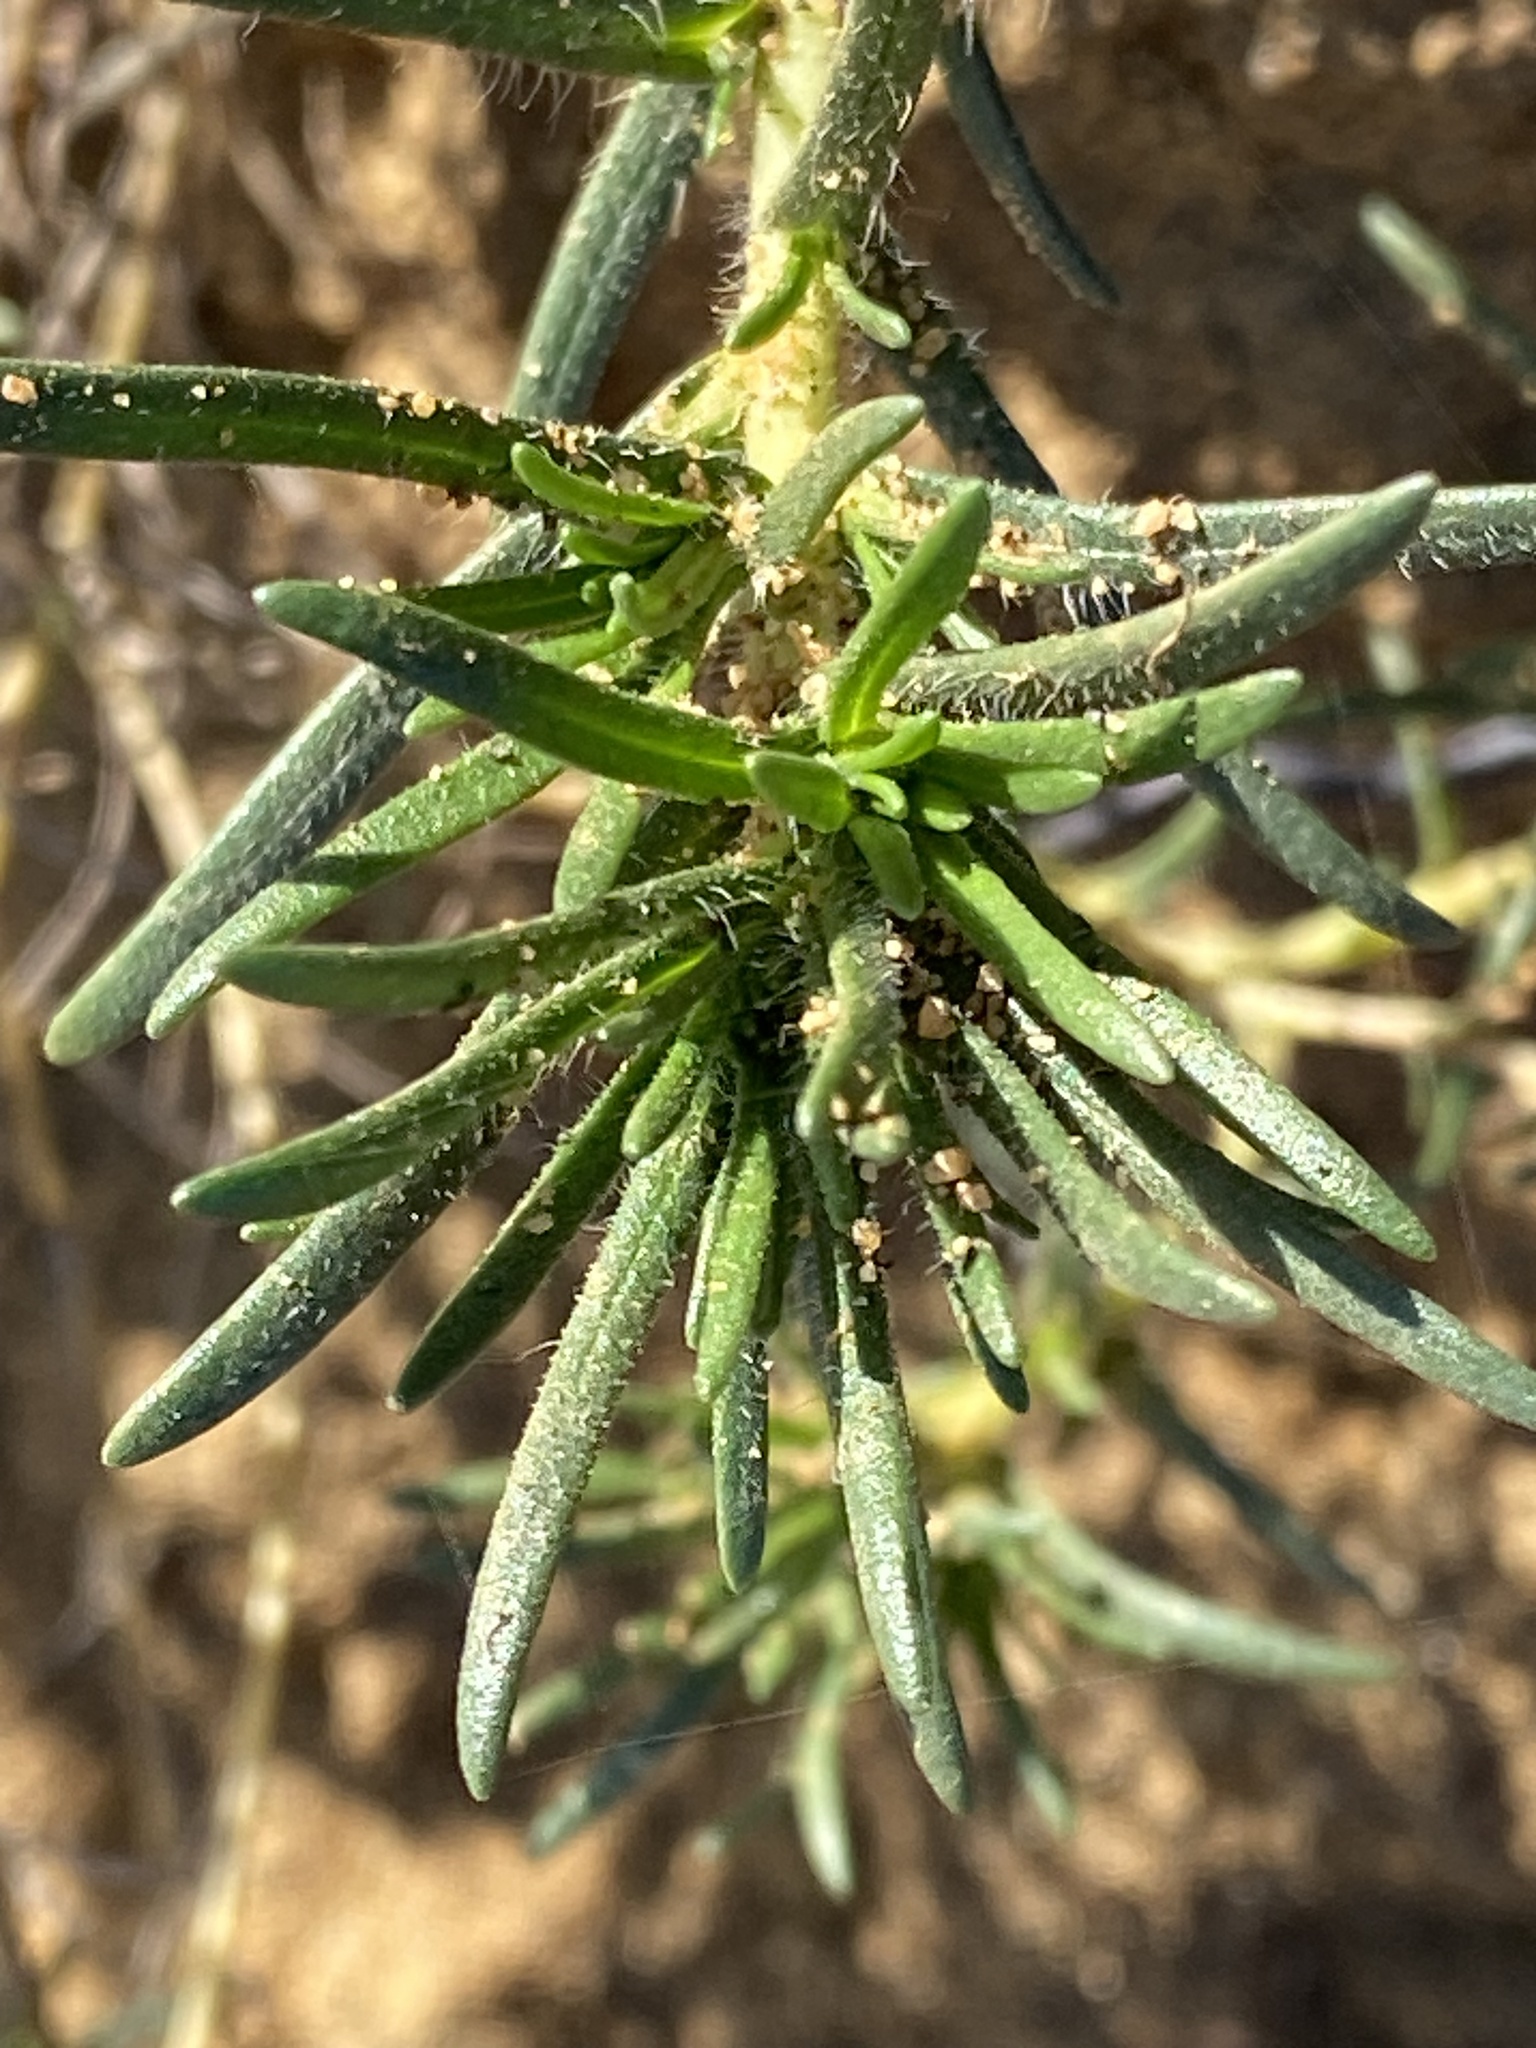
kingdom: Plantae
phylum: Tracheophyta
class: Magnoliopsida
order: Asterales
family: Asteraceae
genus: Osmadenia
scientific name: Osmadenia tenella
